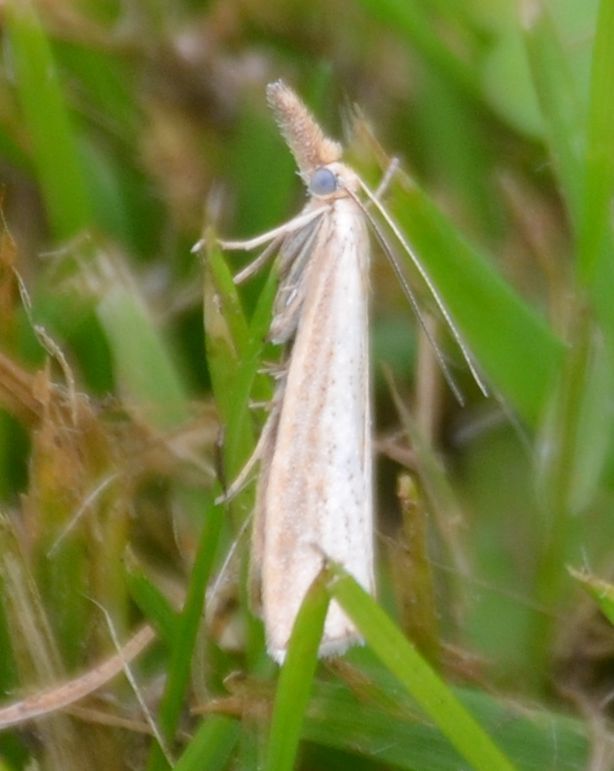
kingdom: Animalia
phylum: Arthropoda
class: Insecta
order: Lepidoptera
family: Crambidae
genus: Agriphila
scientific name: Agriphila straminella
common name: Straw grass-veneer
